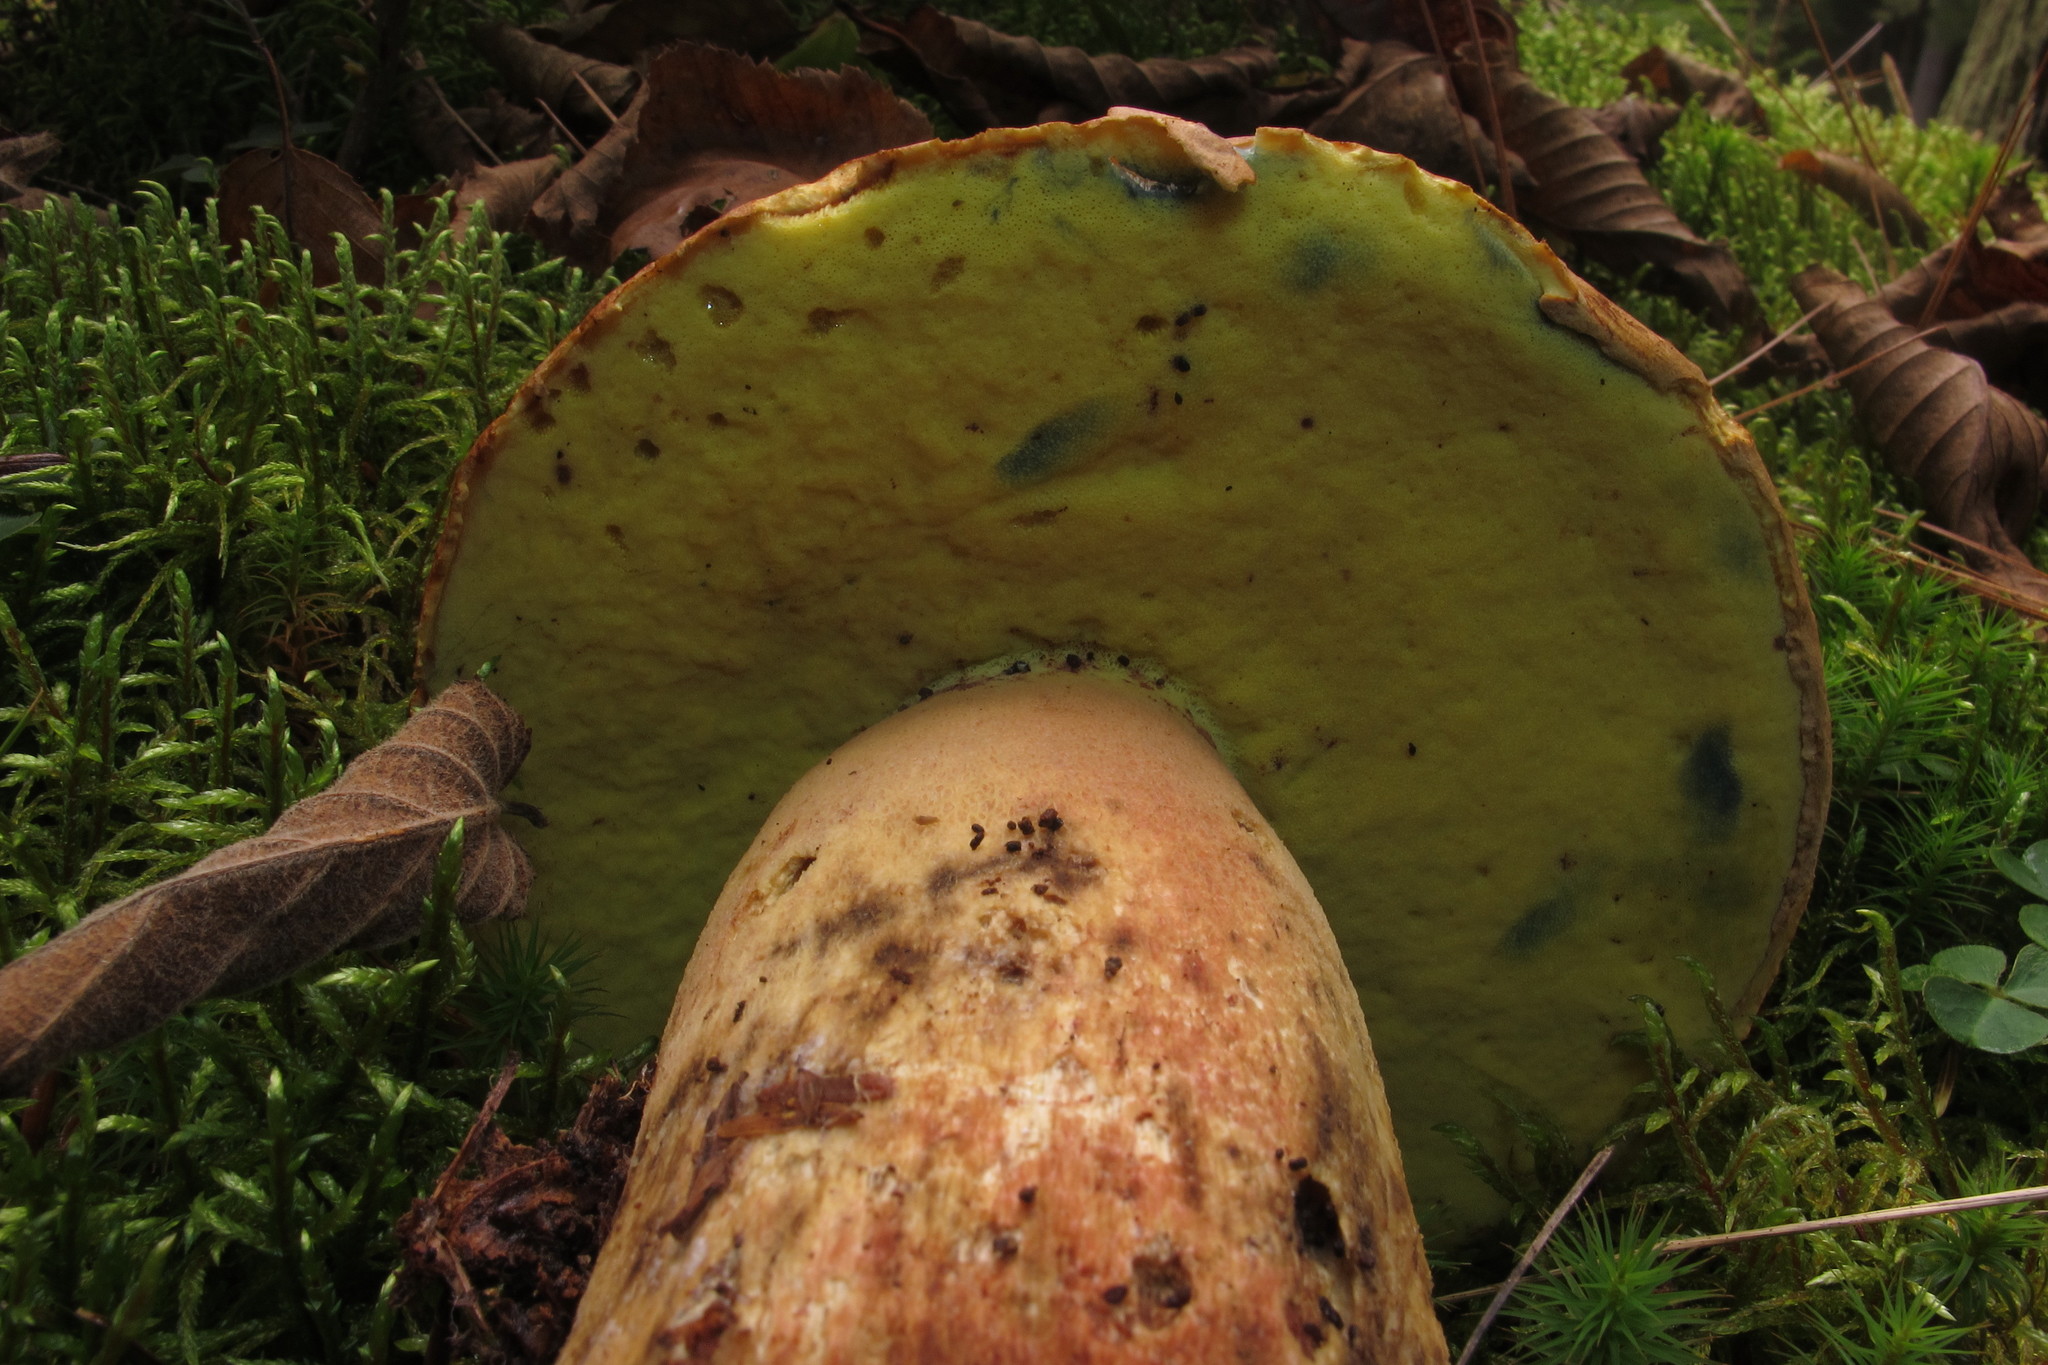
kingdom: Fungi
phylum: Basidiomycota
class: Agaricomycetes
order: Boletales
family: Boletaceae
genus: Butyriboletus
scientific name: Butyriboletus brunneus
